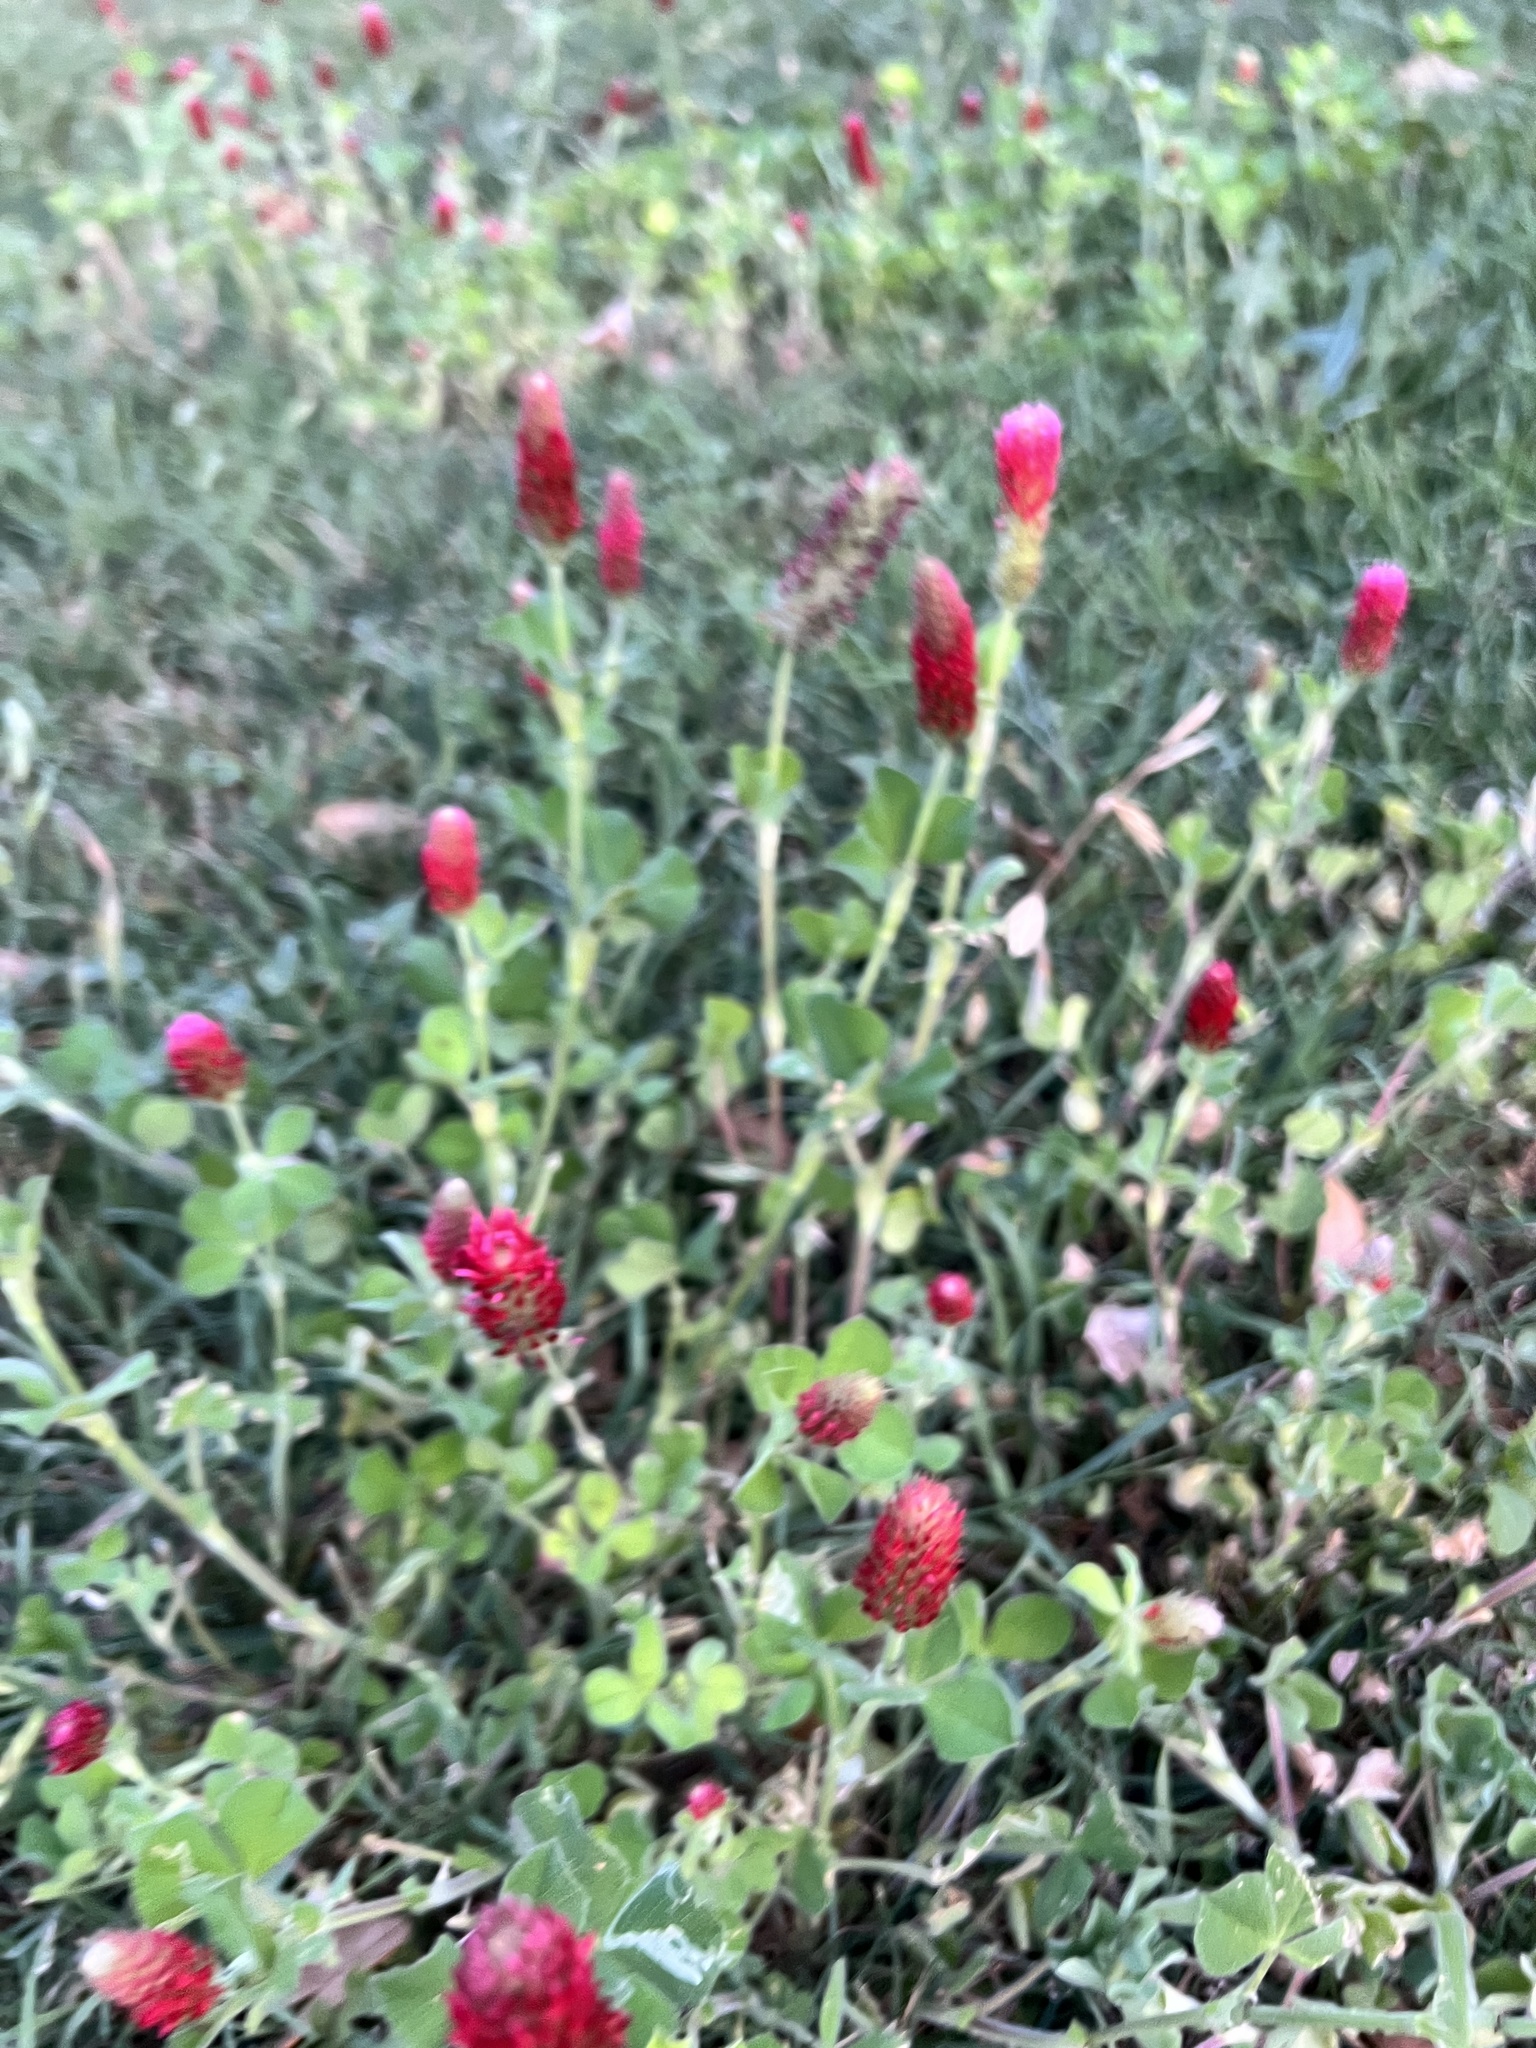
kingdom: Plantae
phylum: Tracheophyta
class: Magnoliopsida
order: Fabales
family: Fabaceae
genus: Trifolium
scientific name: Trifolium incarnatum
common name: Crimson clover
